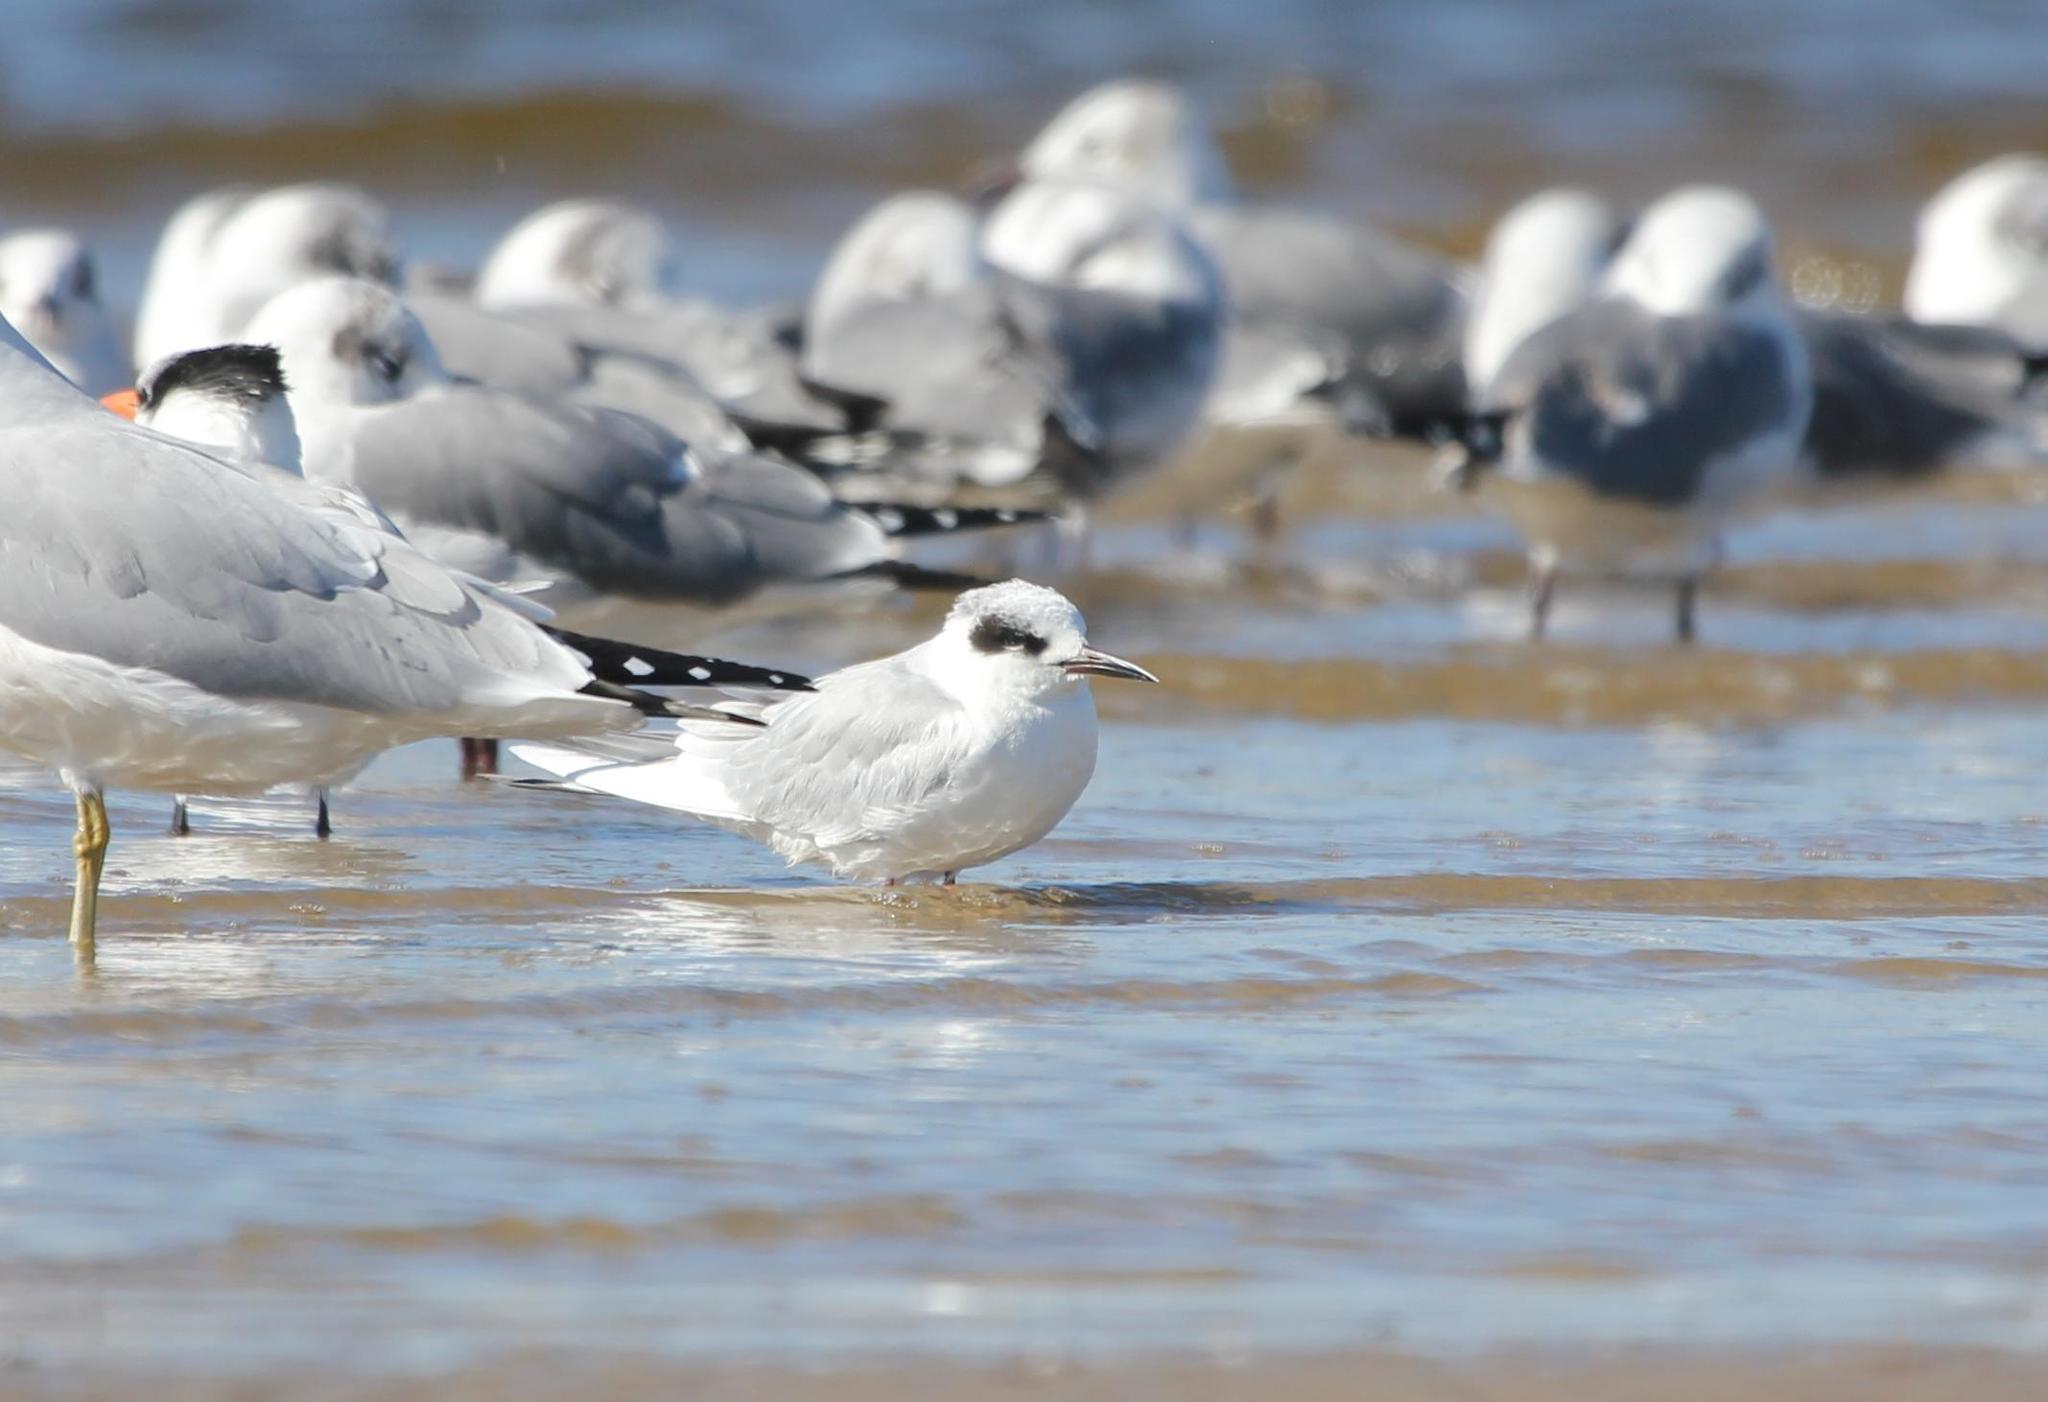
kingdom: Animalia
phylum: Chordata
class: Aves
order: Charadriiformes
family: Laridae
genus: Sterna
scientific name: Sterna forsteri
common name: Forster's tern
